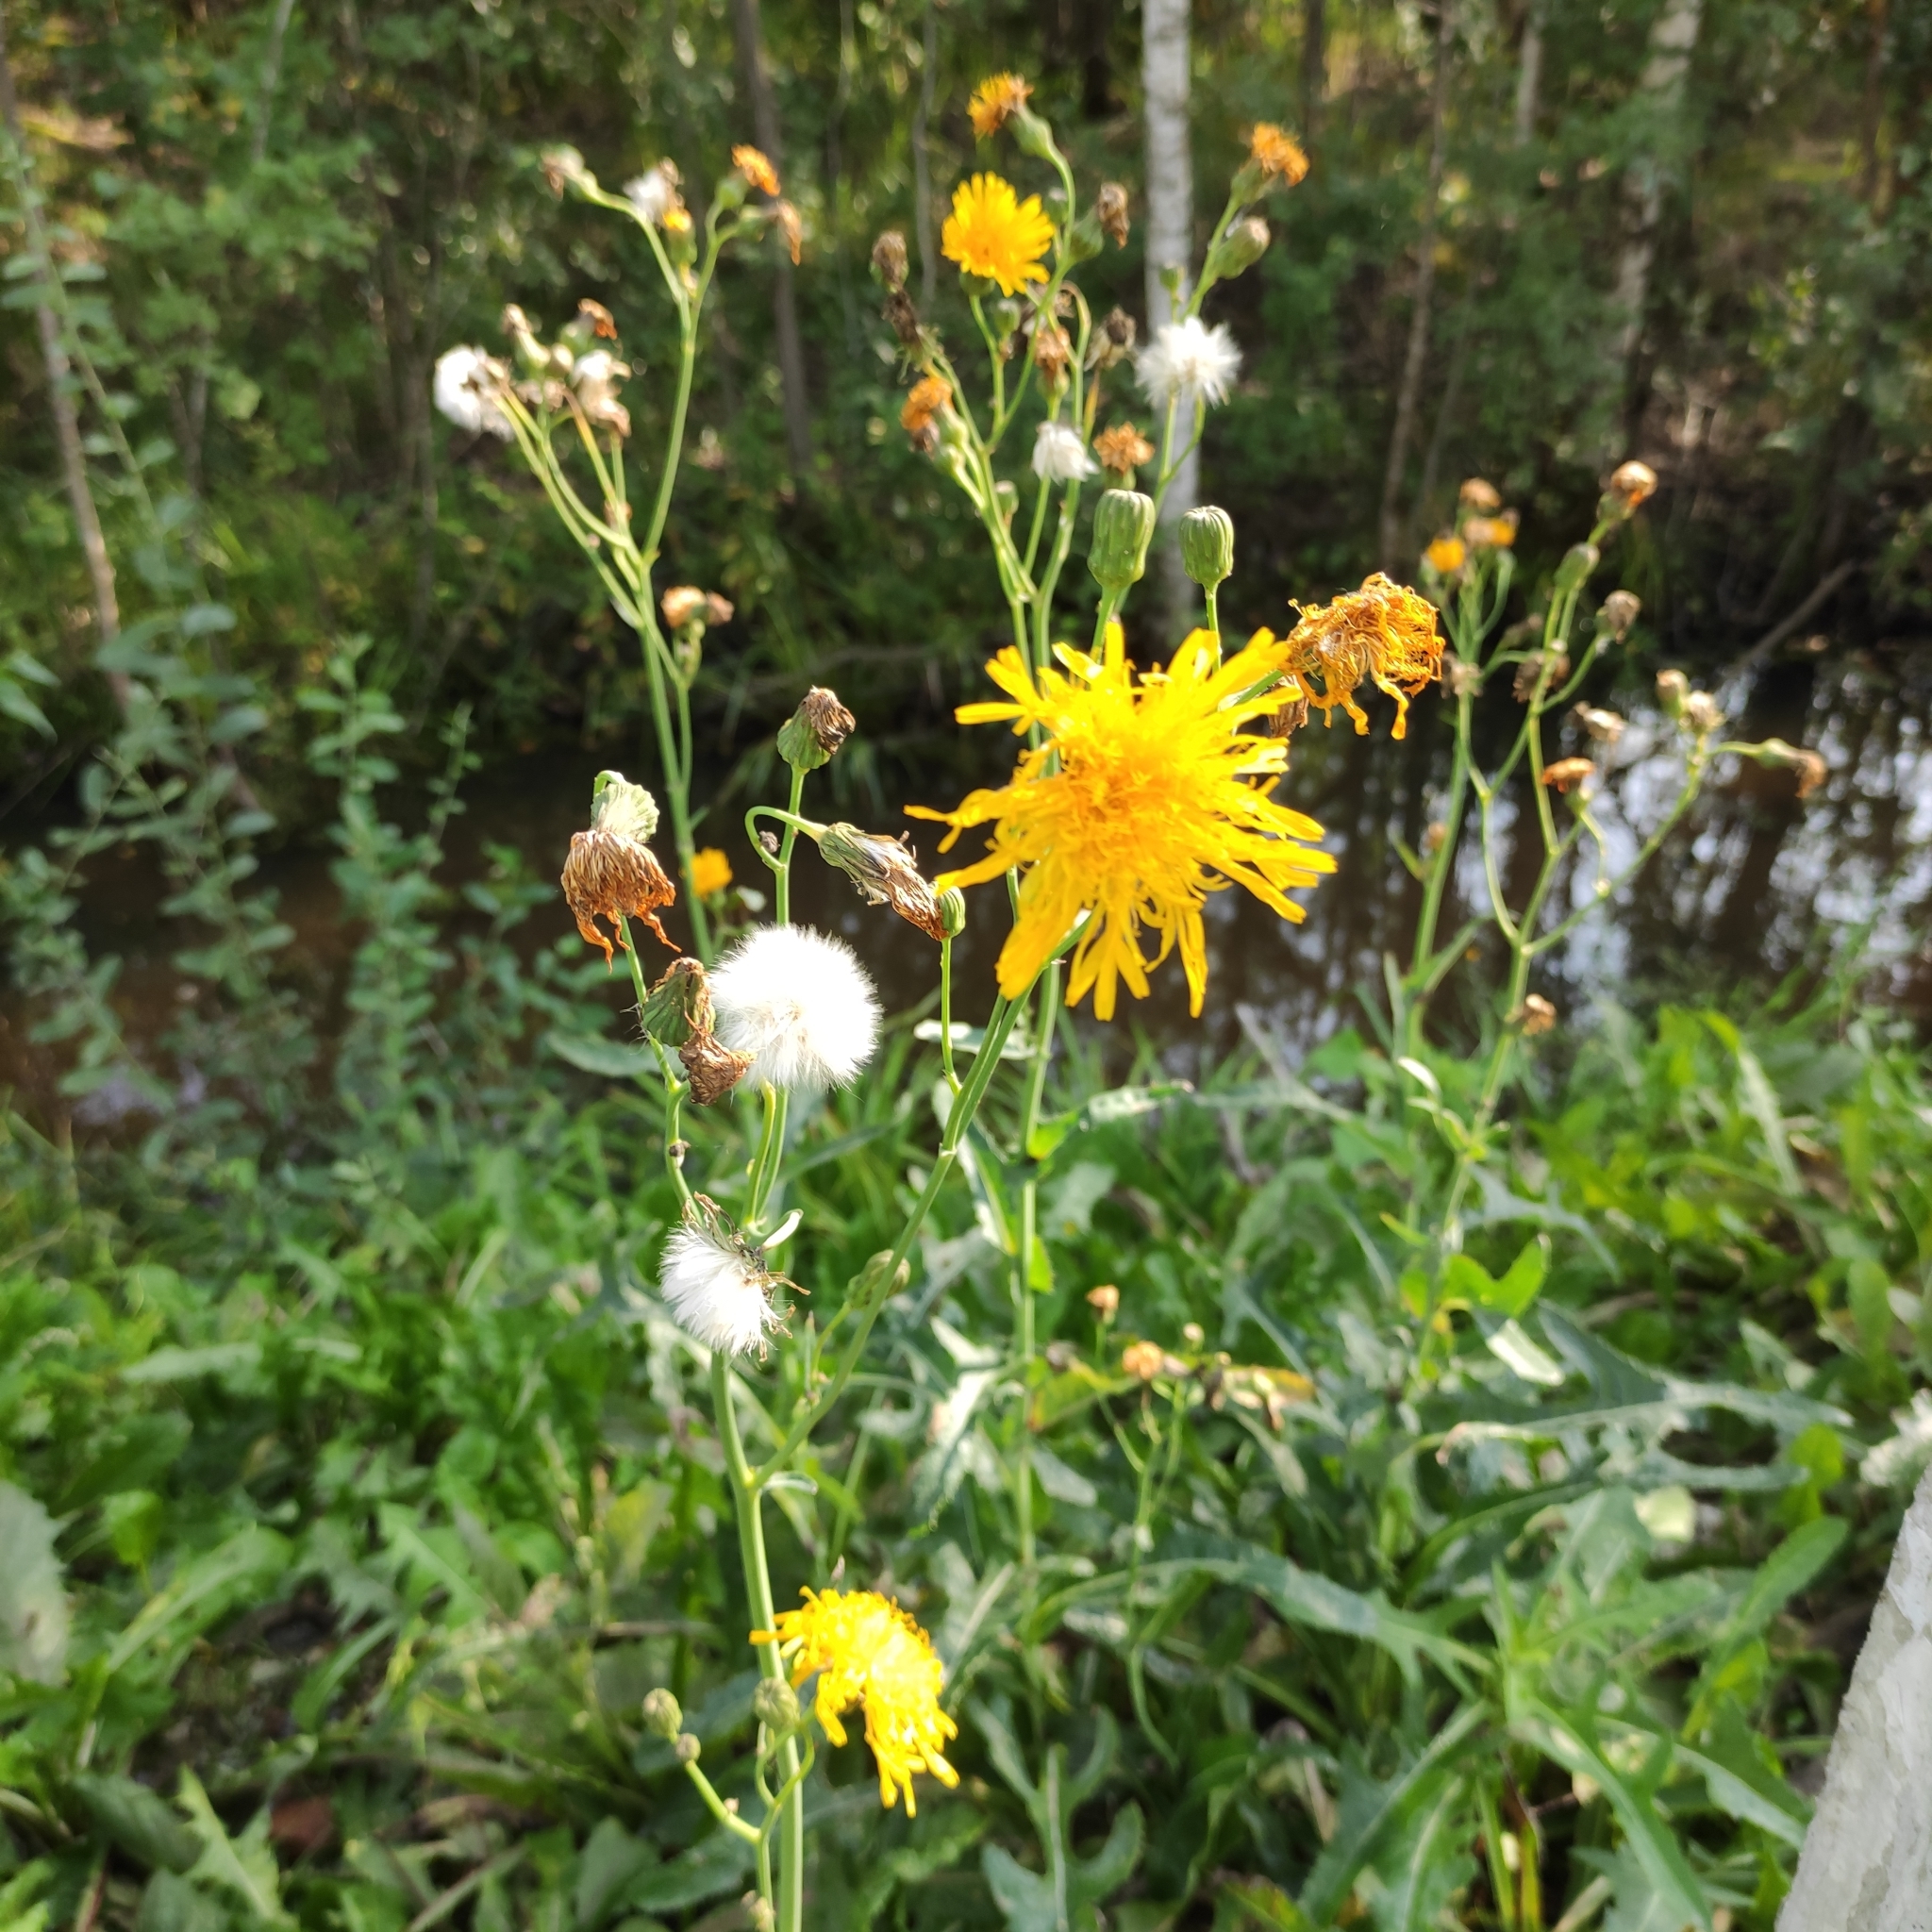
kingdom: Plantae
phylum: Tracheophyta
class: Magnoliopsida
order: Asterales
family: Asteraceae
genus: Sonchus
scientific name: Sonchus arvensis
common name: Perennial sow-thistle
